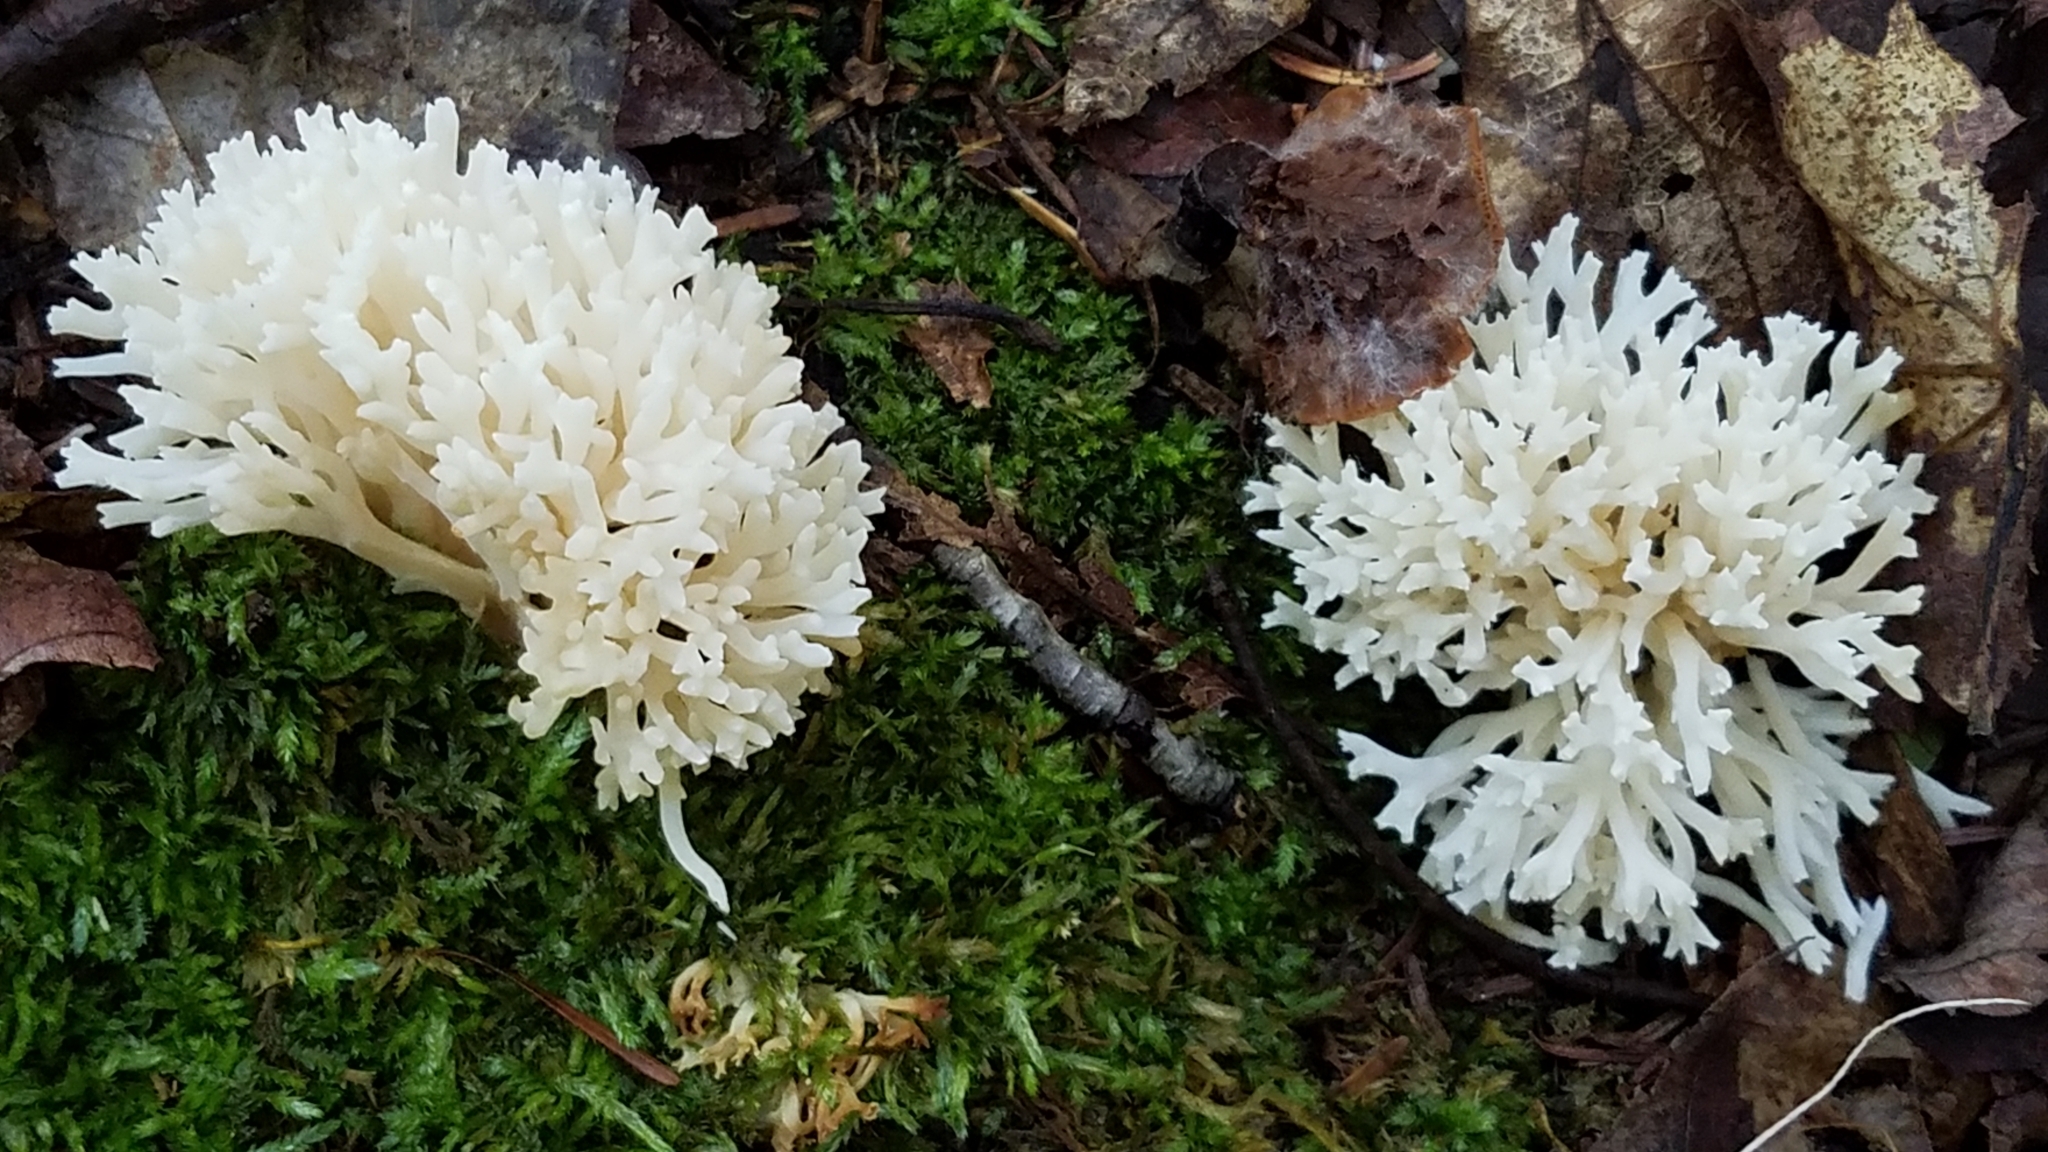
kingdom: Fungi
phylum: Basidiomycota
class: Agaricomycetes
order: Agaricales
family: Clavariaceae
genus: Ramariopsis
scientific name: Ramariopsis kunzei
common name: Ivory coral
